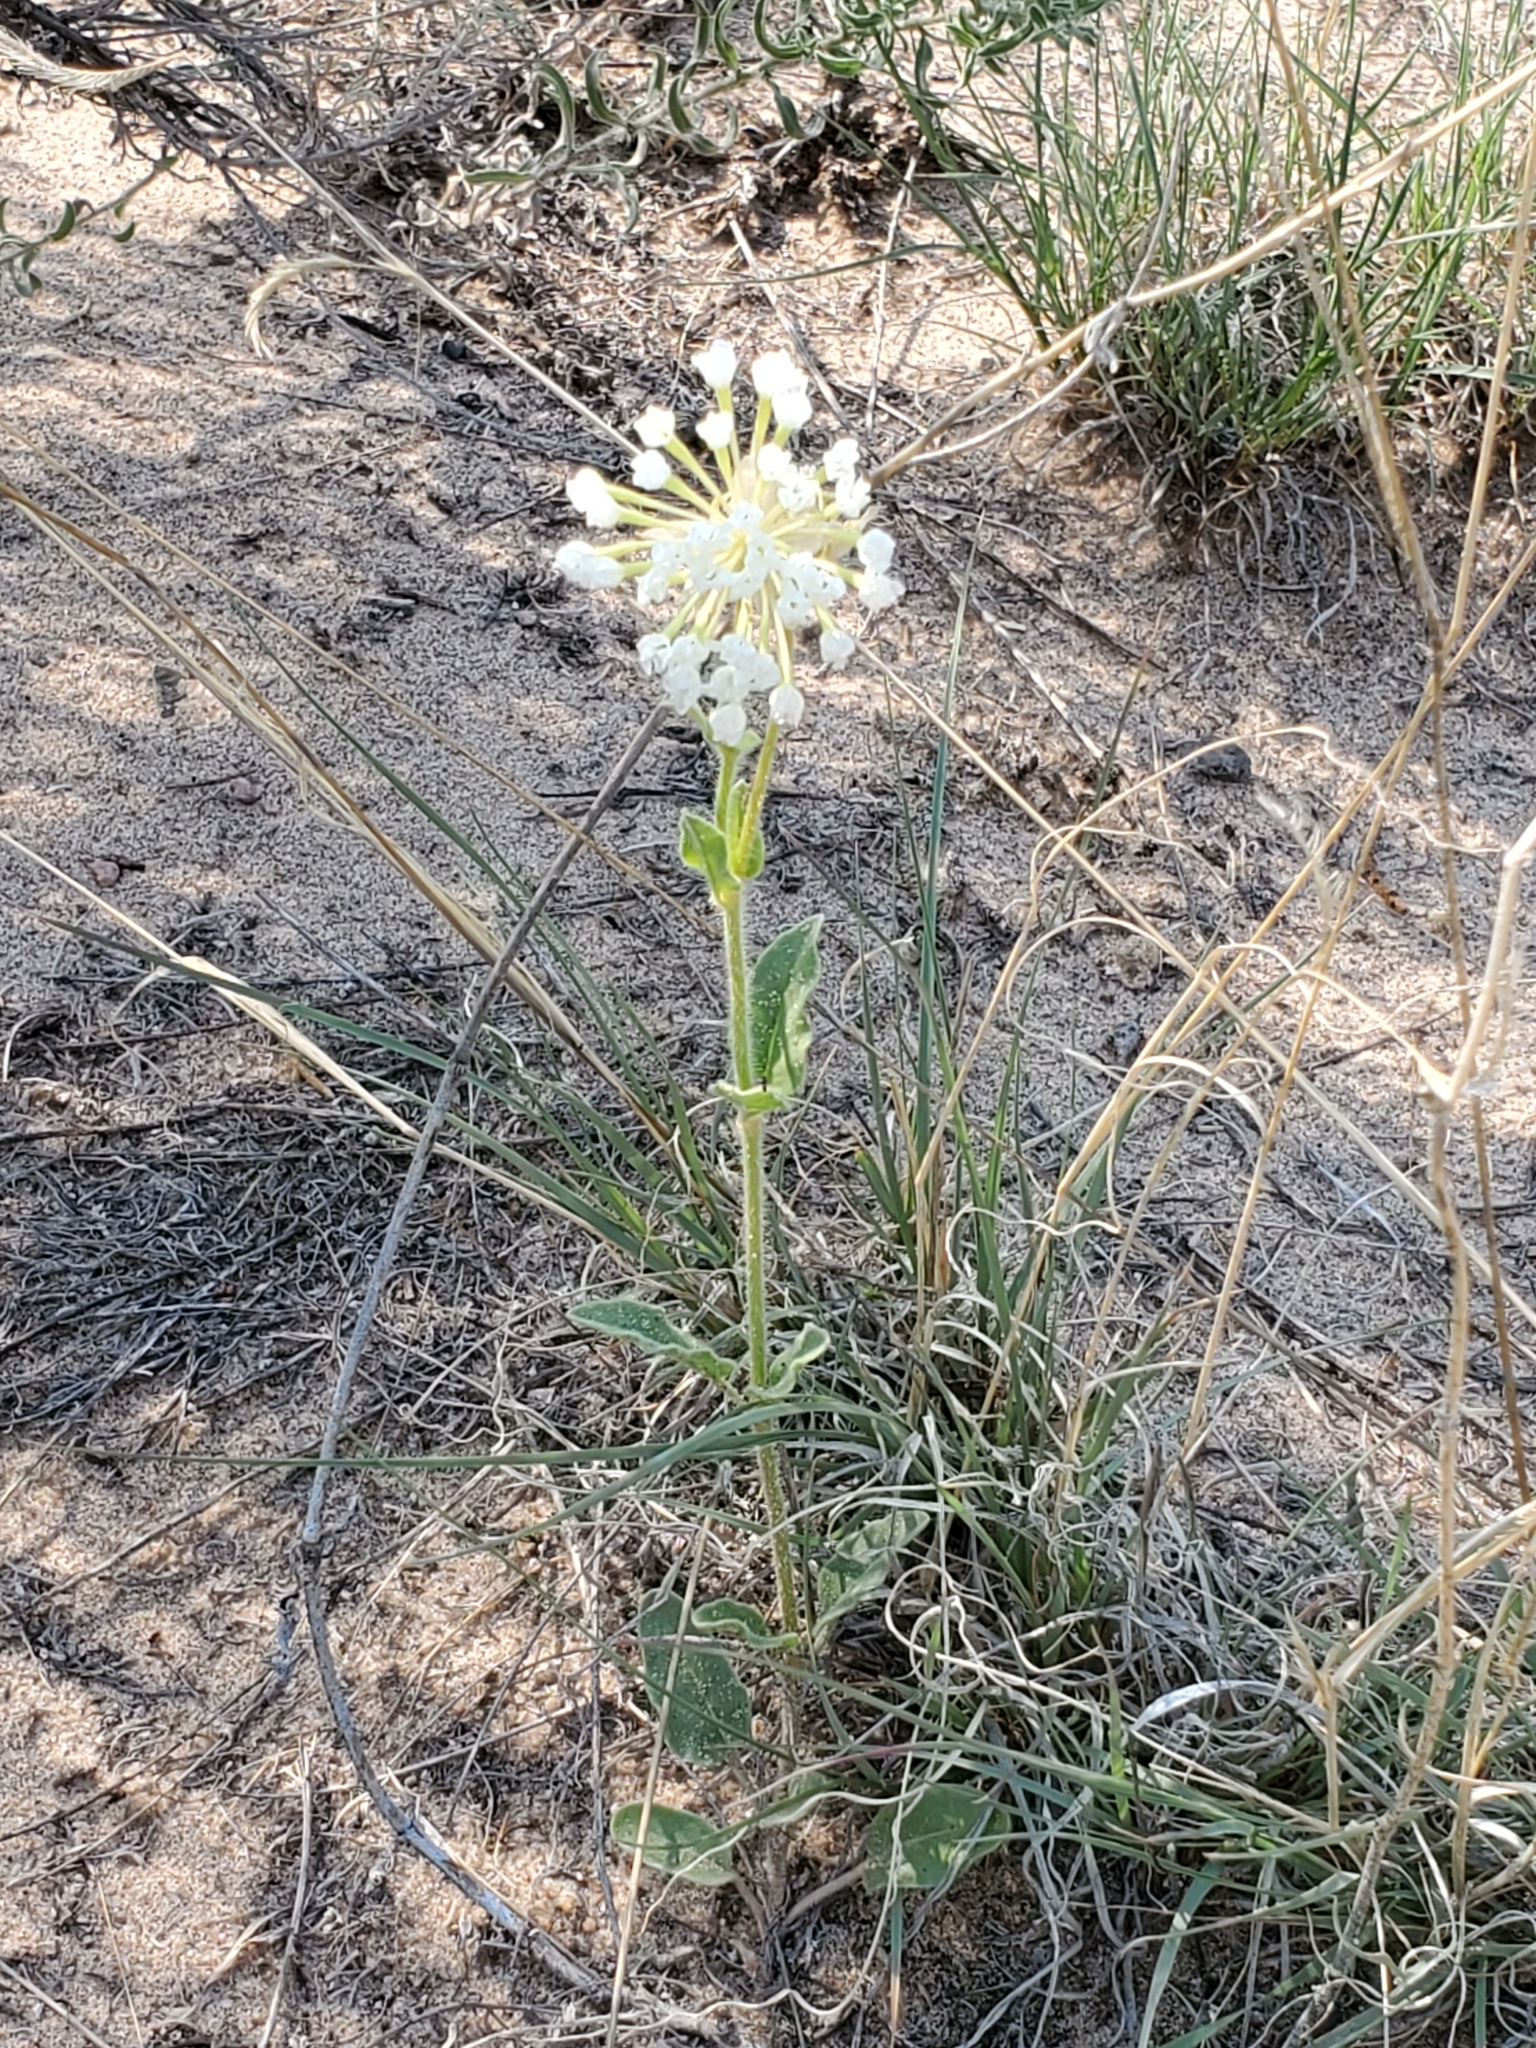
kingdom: Plantae
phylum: Tracheophyta
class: Magnoliopsida
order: Caryophyllales
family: Nyctaginaceae
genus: Abronia
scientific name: Abronia fragrans
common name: Fragrant sand-verbena
